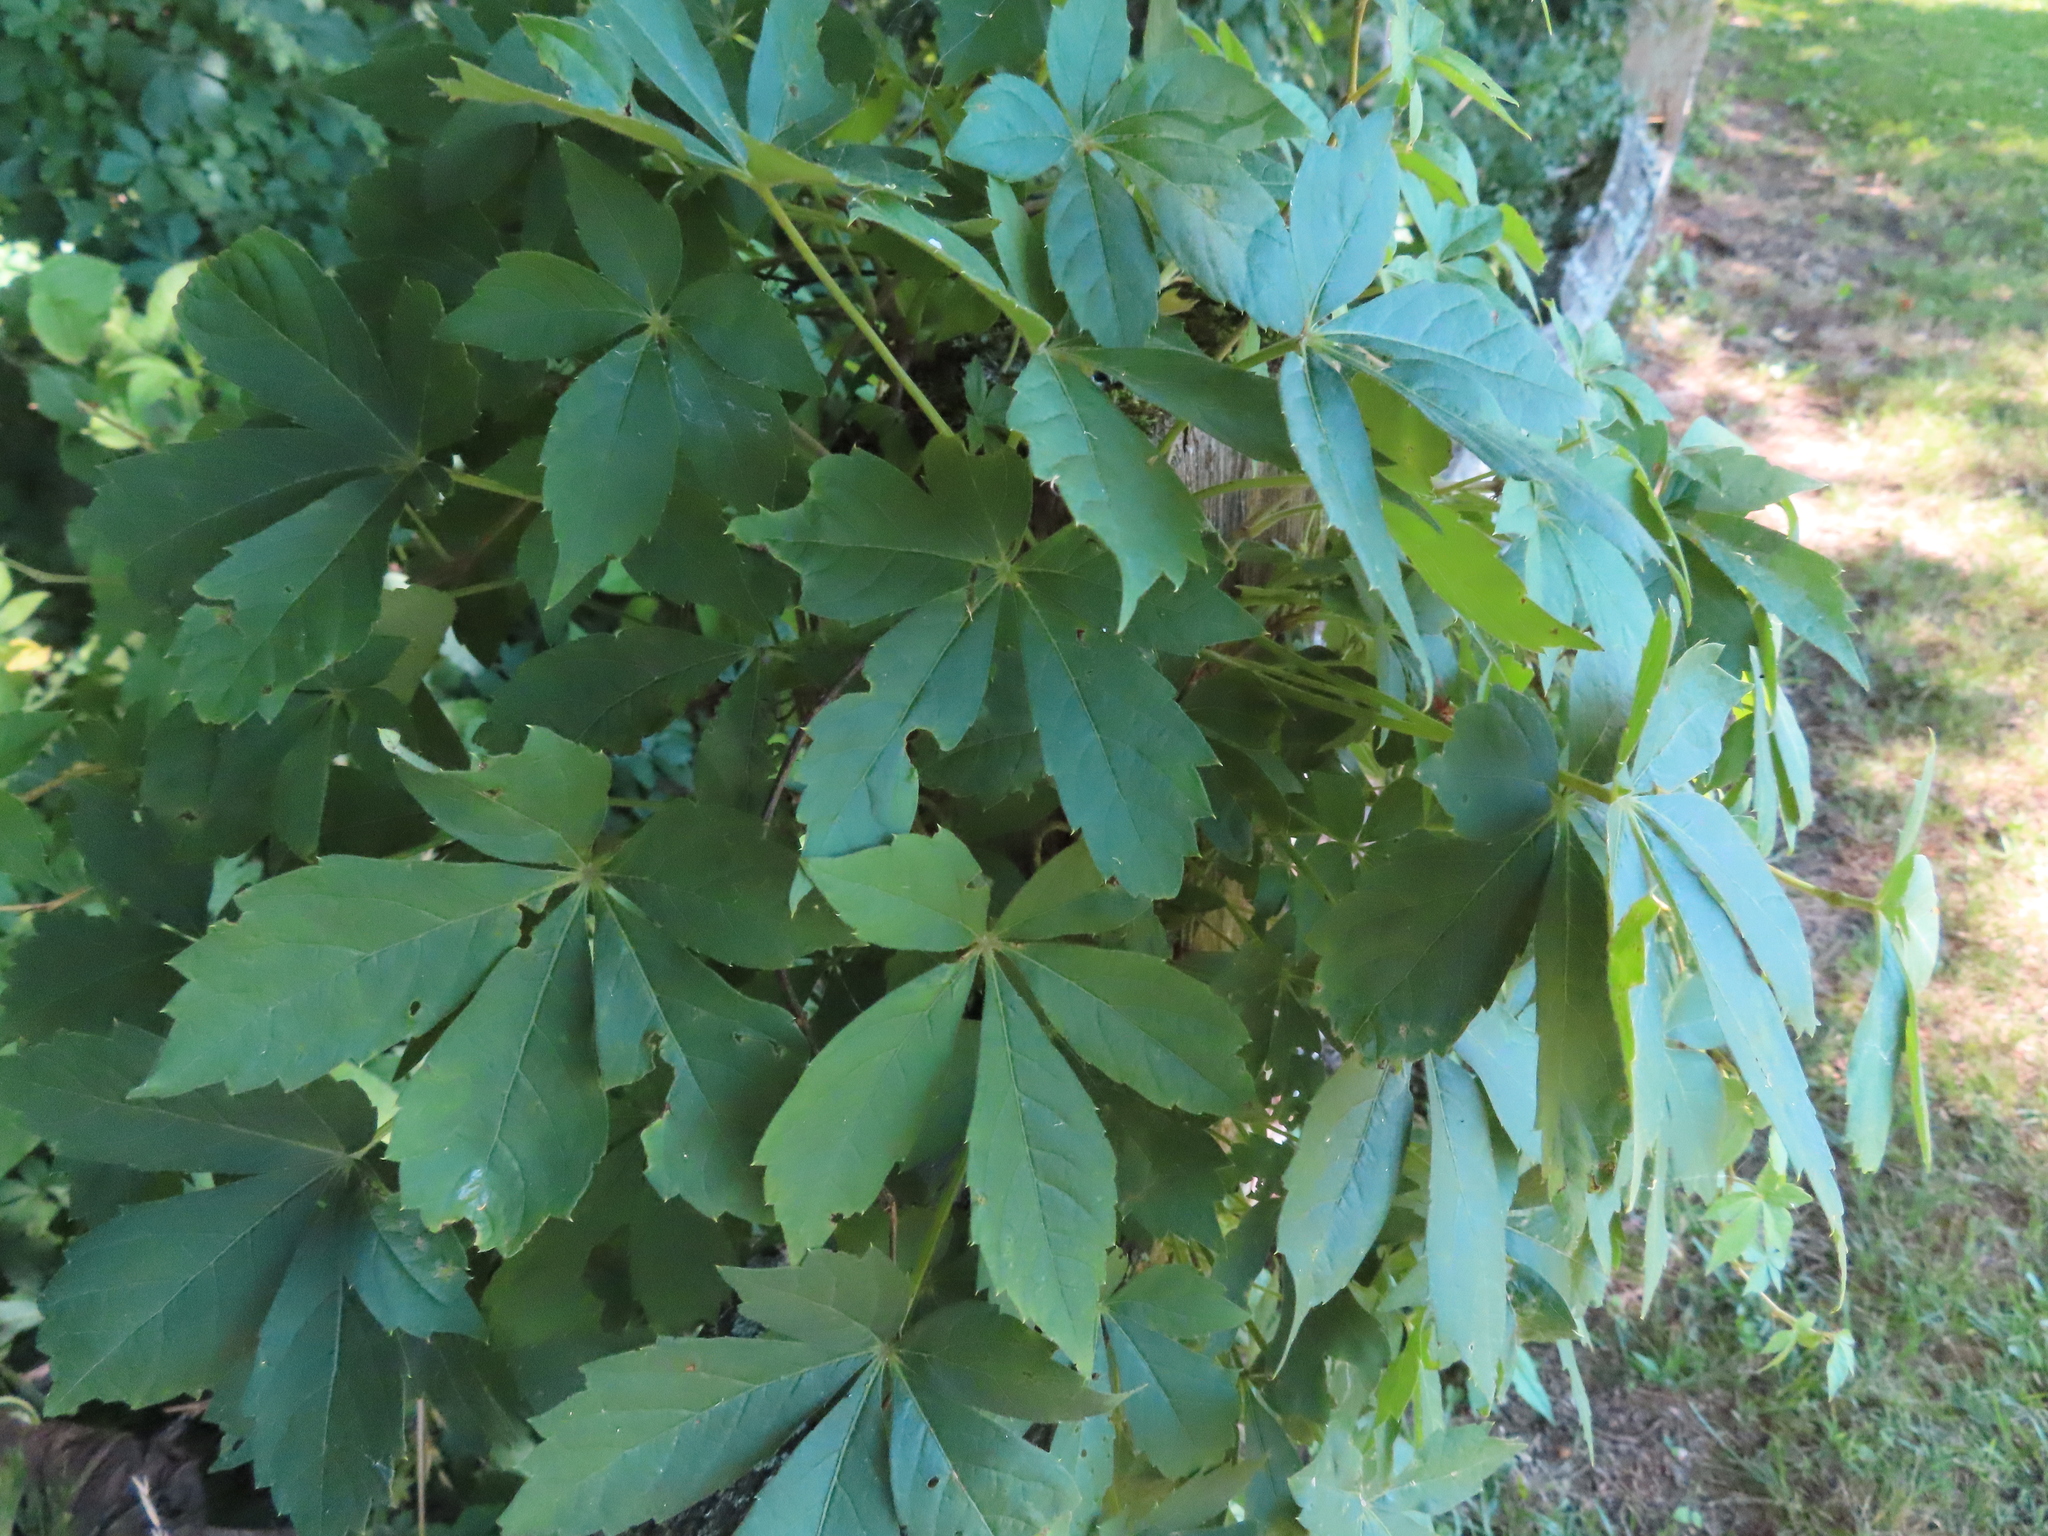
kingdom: Plantae
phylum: Tracheophyta
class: Magnoliopsida
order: Vitales
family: Vitaceae
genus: Parthenocissus
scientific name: Parthenocissus quinquefolia
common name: Virginia-creeper
